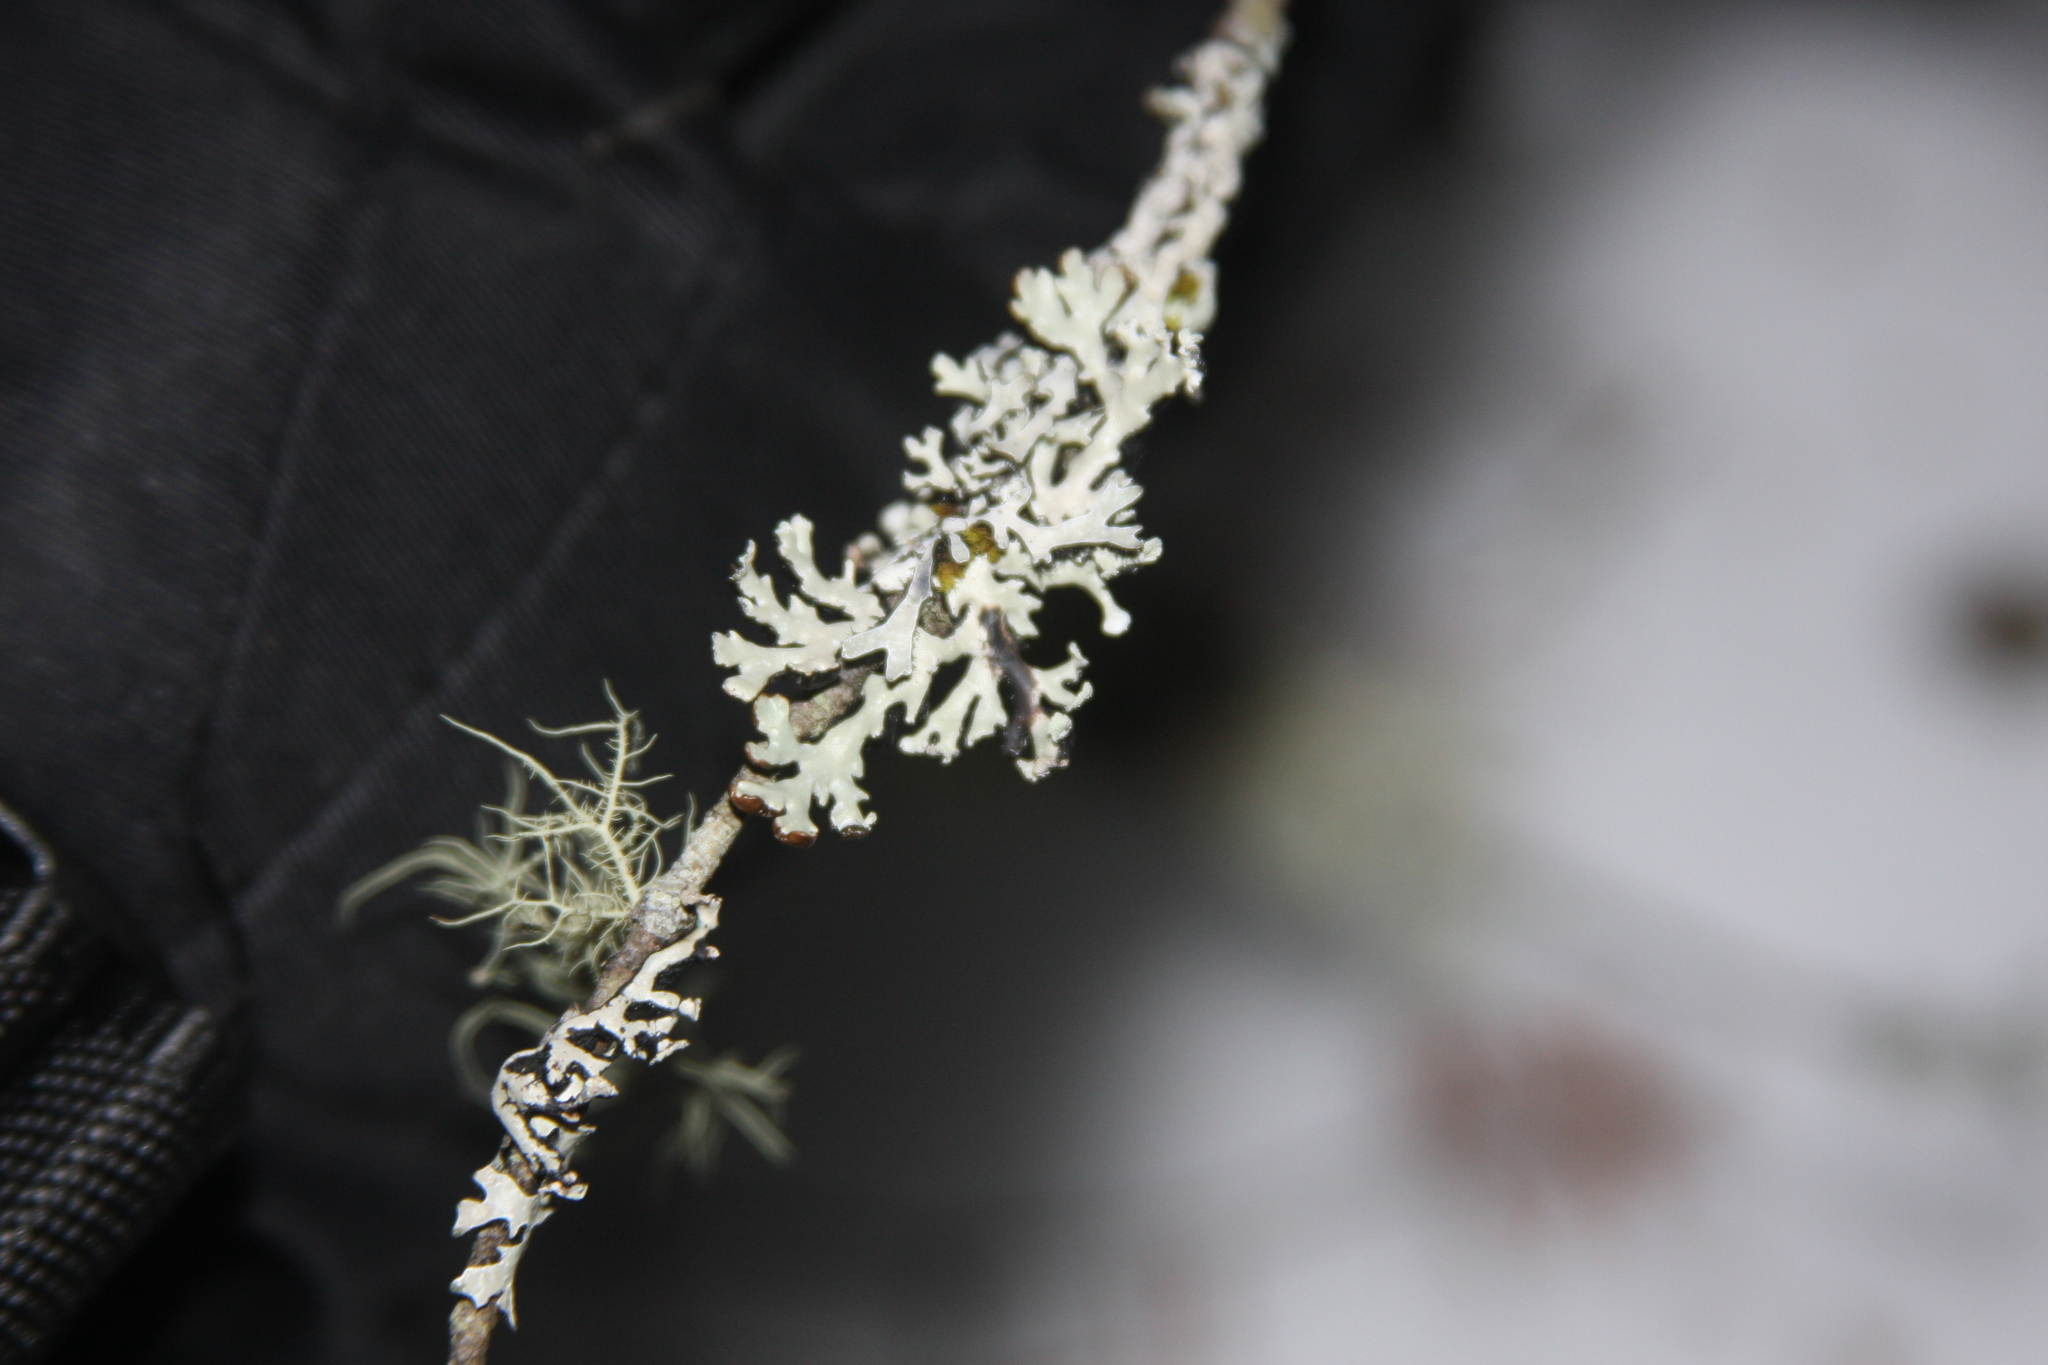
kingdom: Fungi
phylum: Ascomycota
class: Lecanoromycetes
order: Lecanorales
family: Parmeliaceae
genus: Hypogymnia
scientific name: Hypogymnia physodes
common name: Dark crottle
